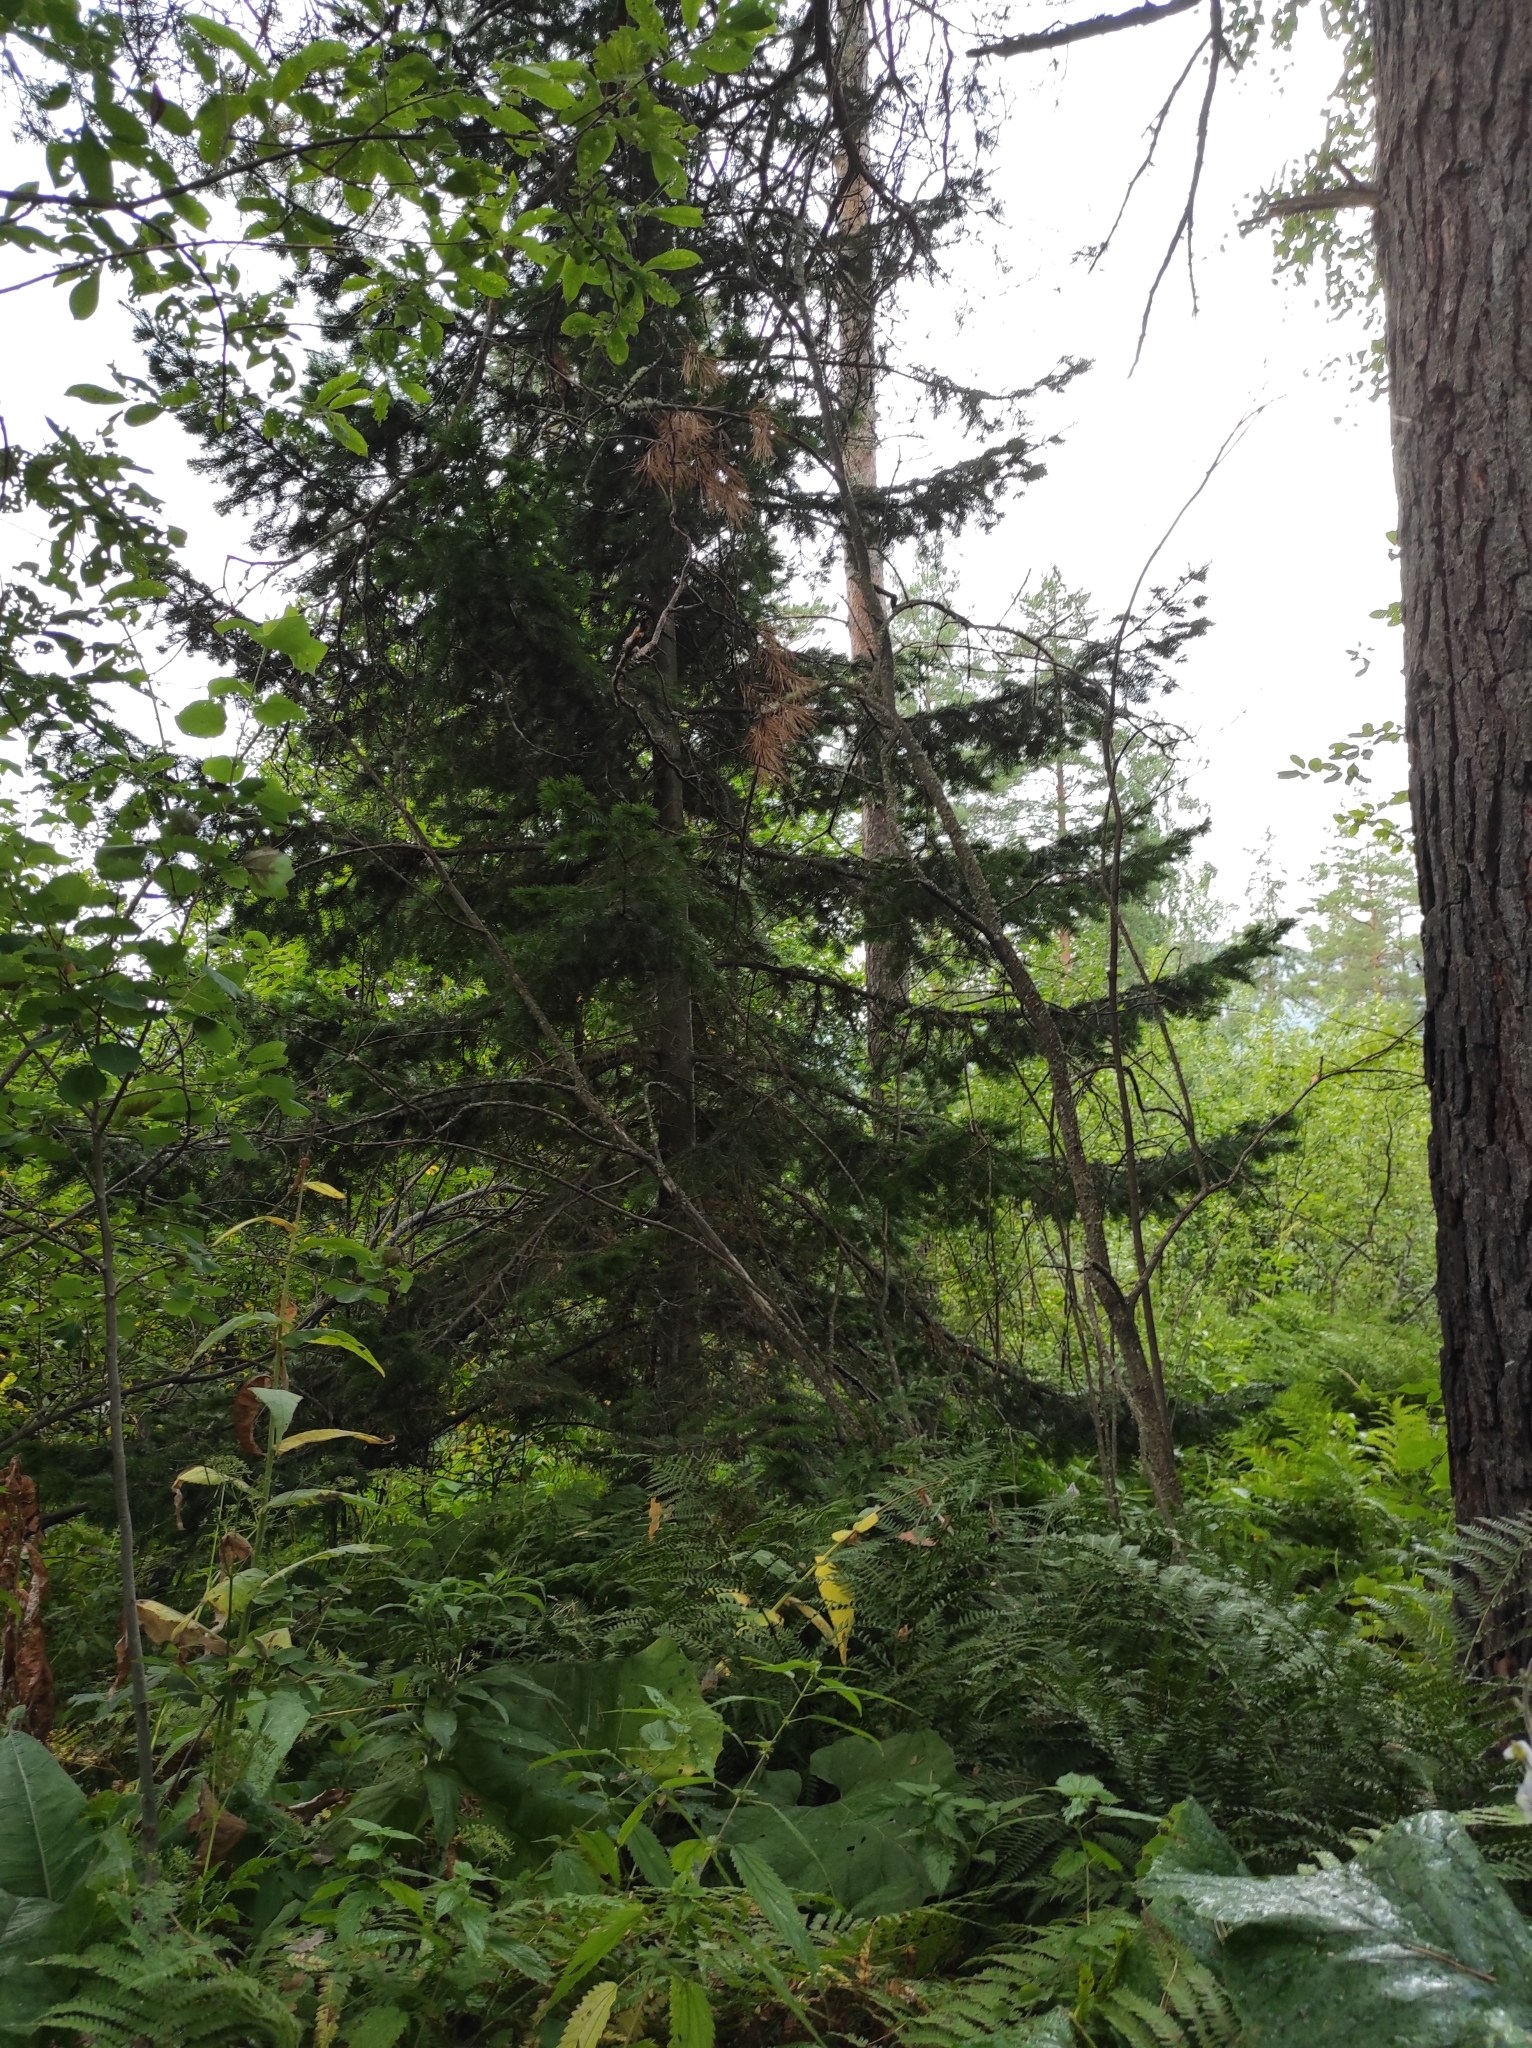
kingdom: Plantae
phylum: Tracheophyta
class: Pinopsida
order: Pinales
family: Pinaceae
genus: Abies
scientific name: Abies sibirica
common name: Siberian fir
